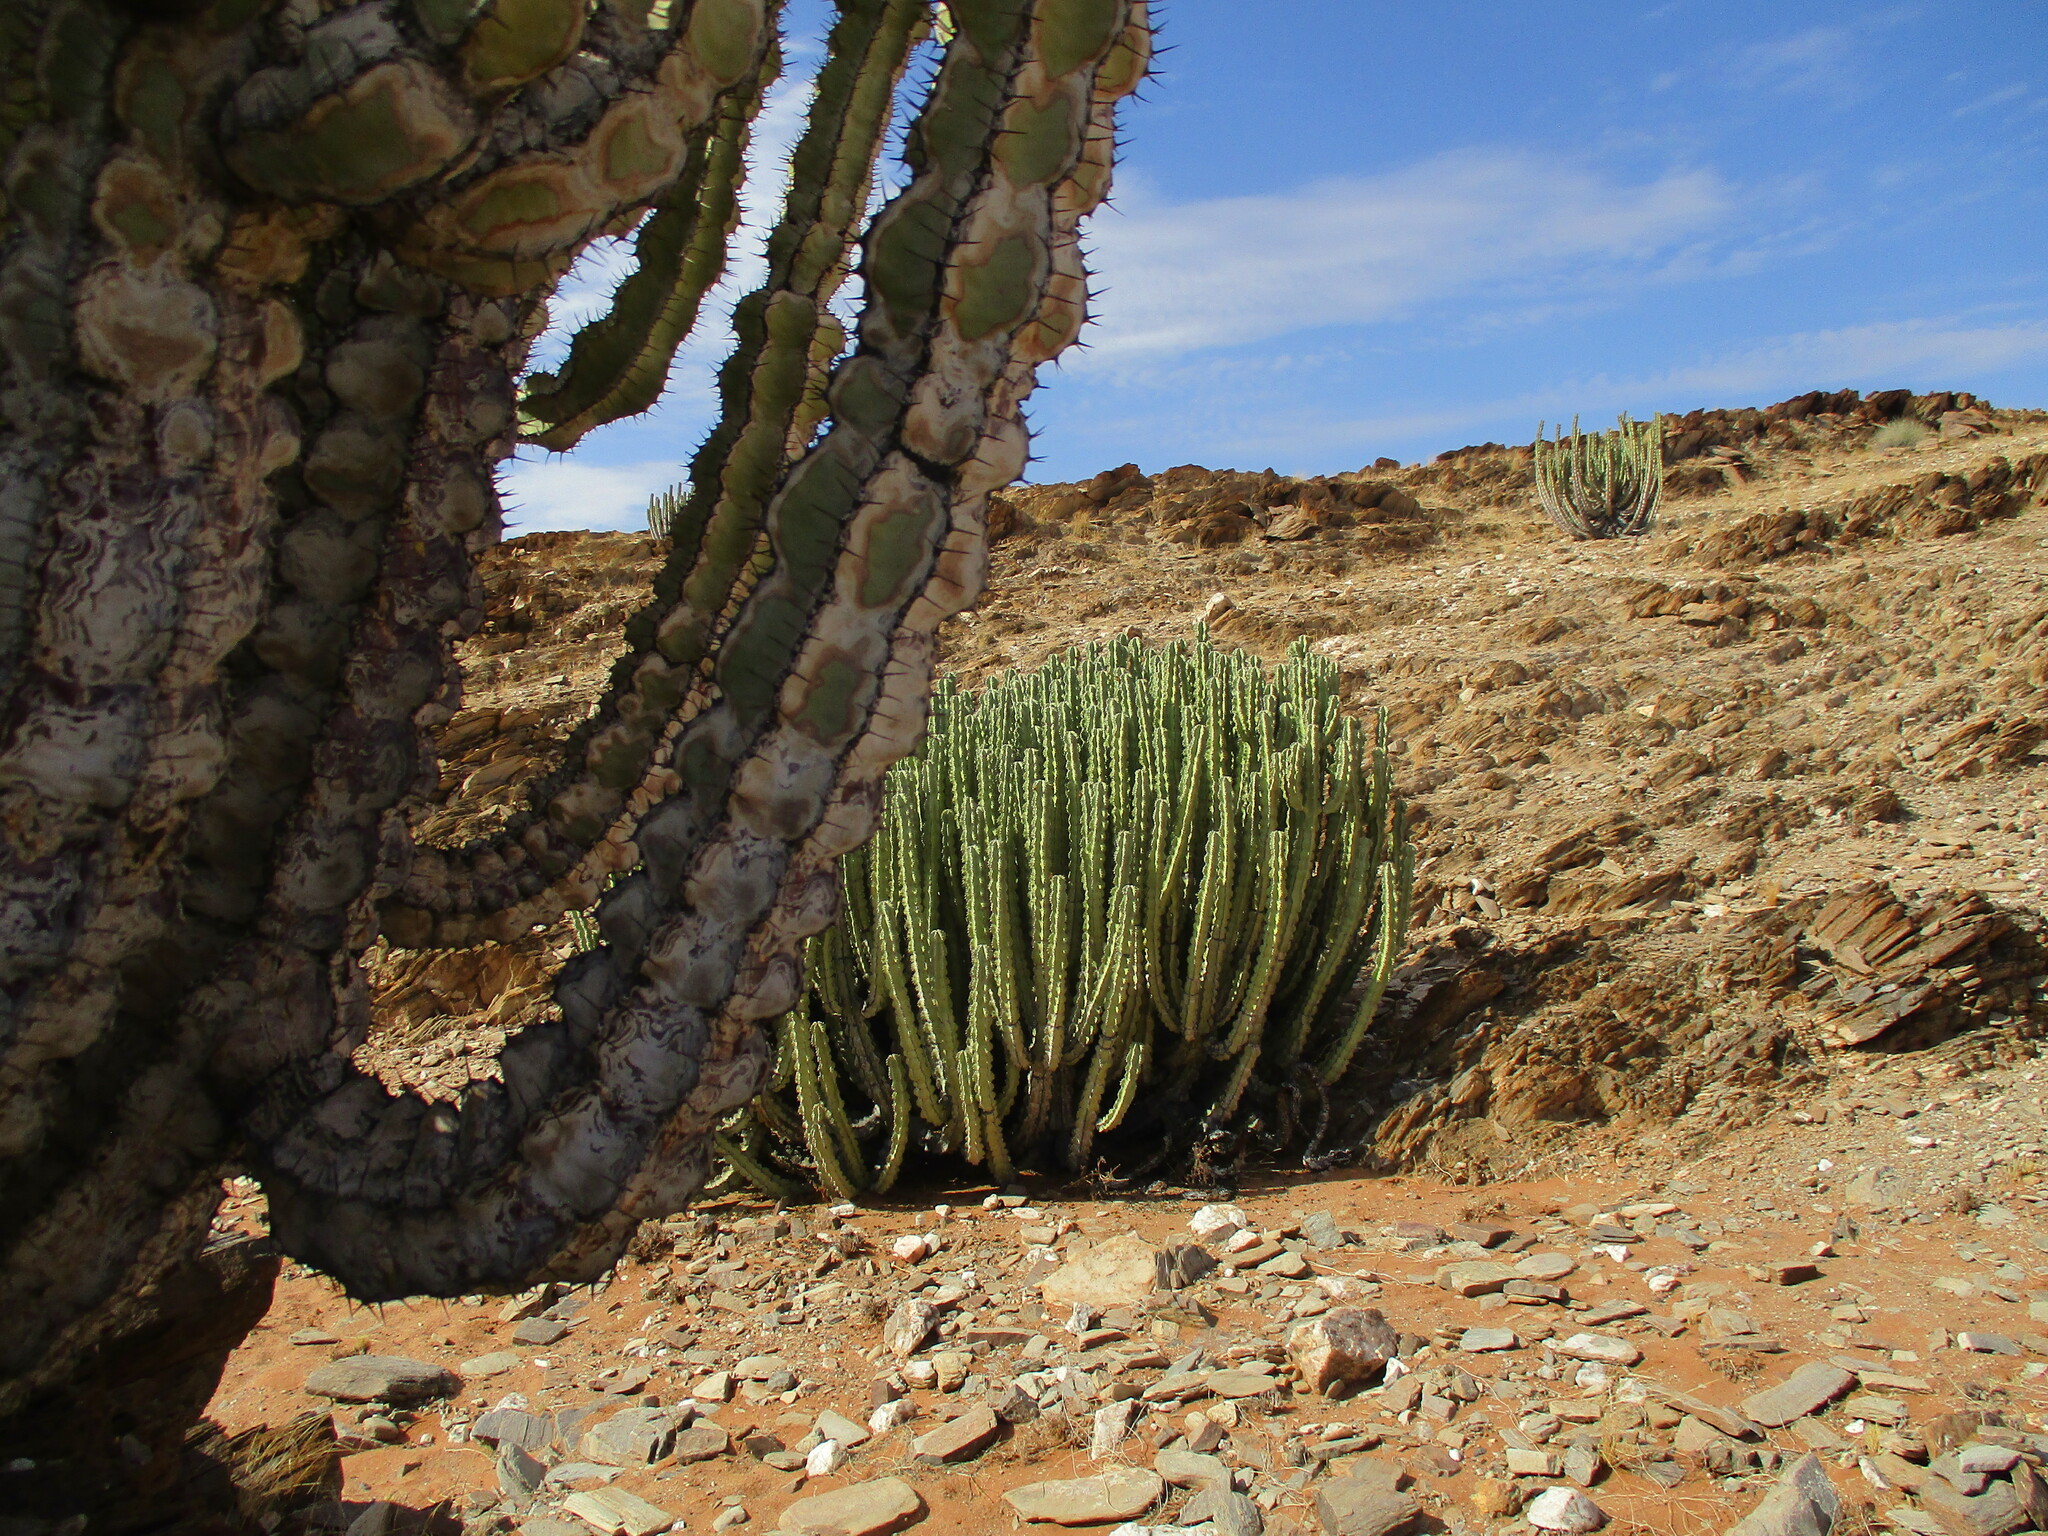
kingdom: Plantae
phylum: Tracheophyta
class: Magnoliopsida
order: Malpighiales
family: Euphorbiaceae
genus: Euphorbia
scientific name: Euphorbia virosa
